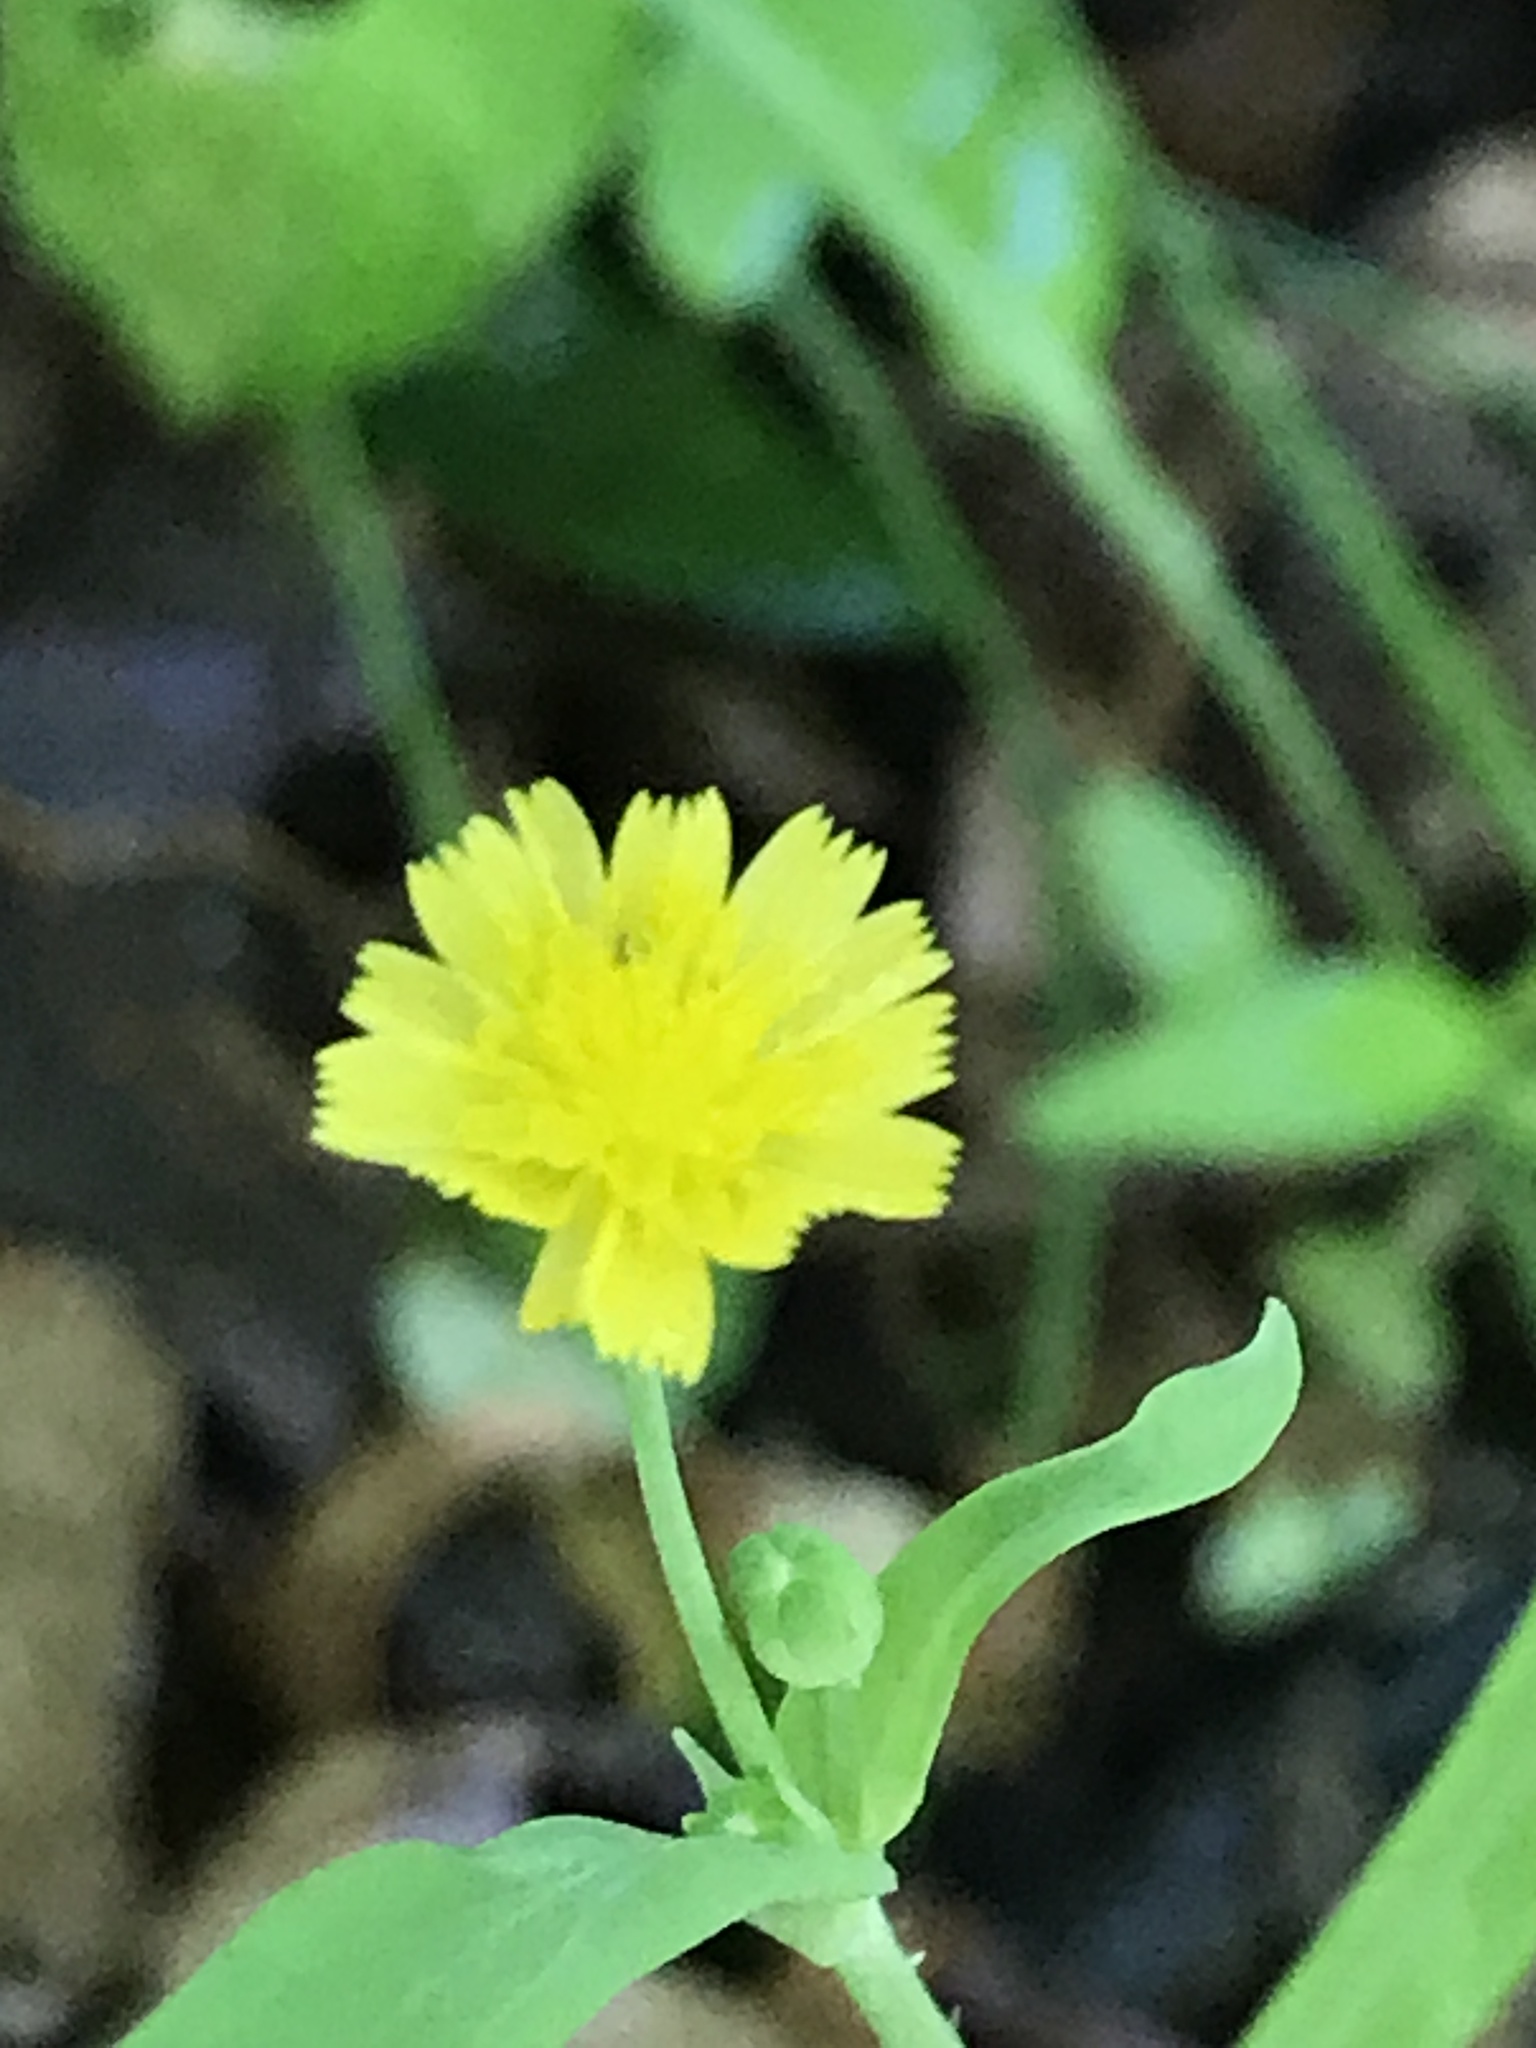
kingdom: Plantae
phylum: Tracheophyta
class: Magnoliopsida
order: Asterales
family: Asteraceae
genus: Krigia
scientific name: Krigia cespitosa
